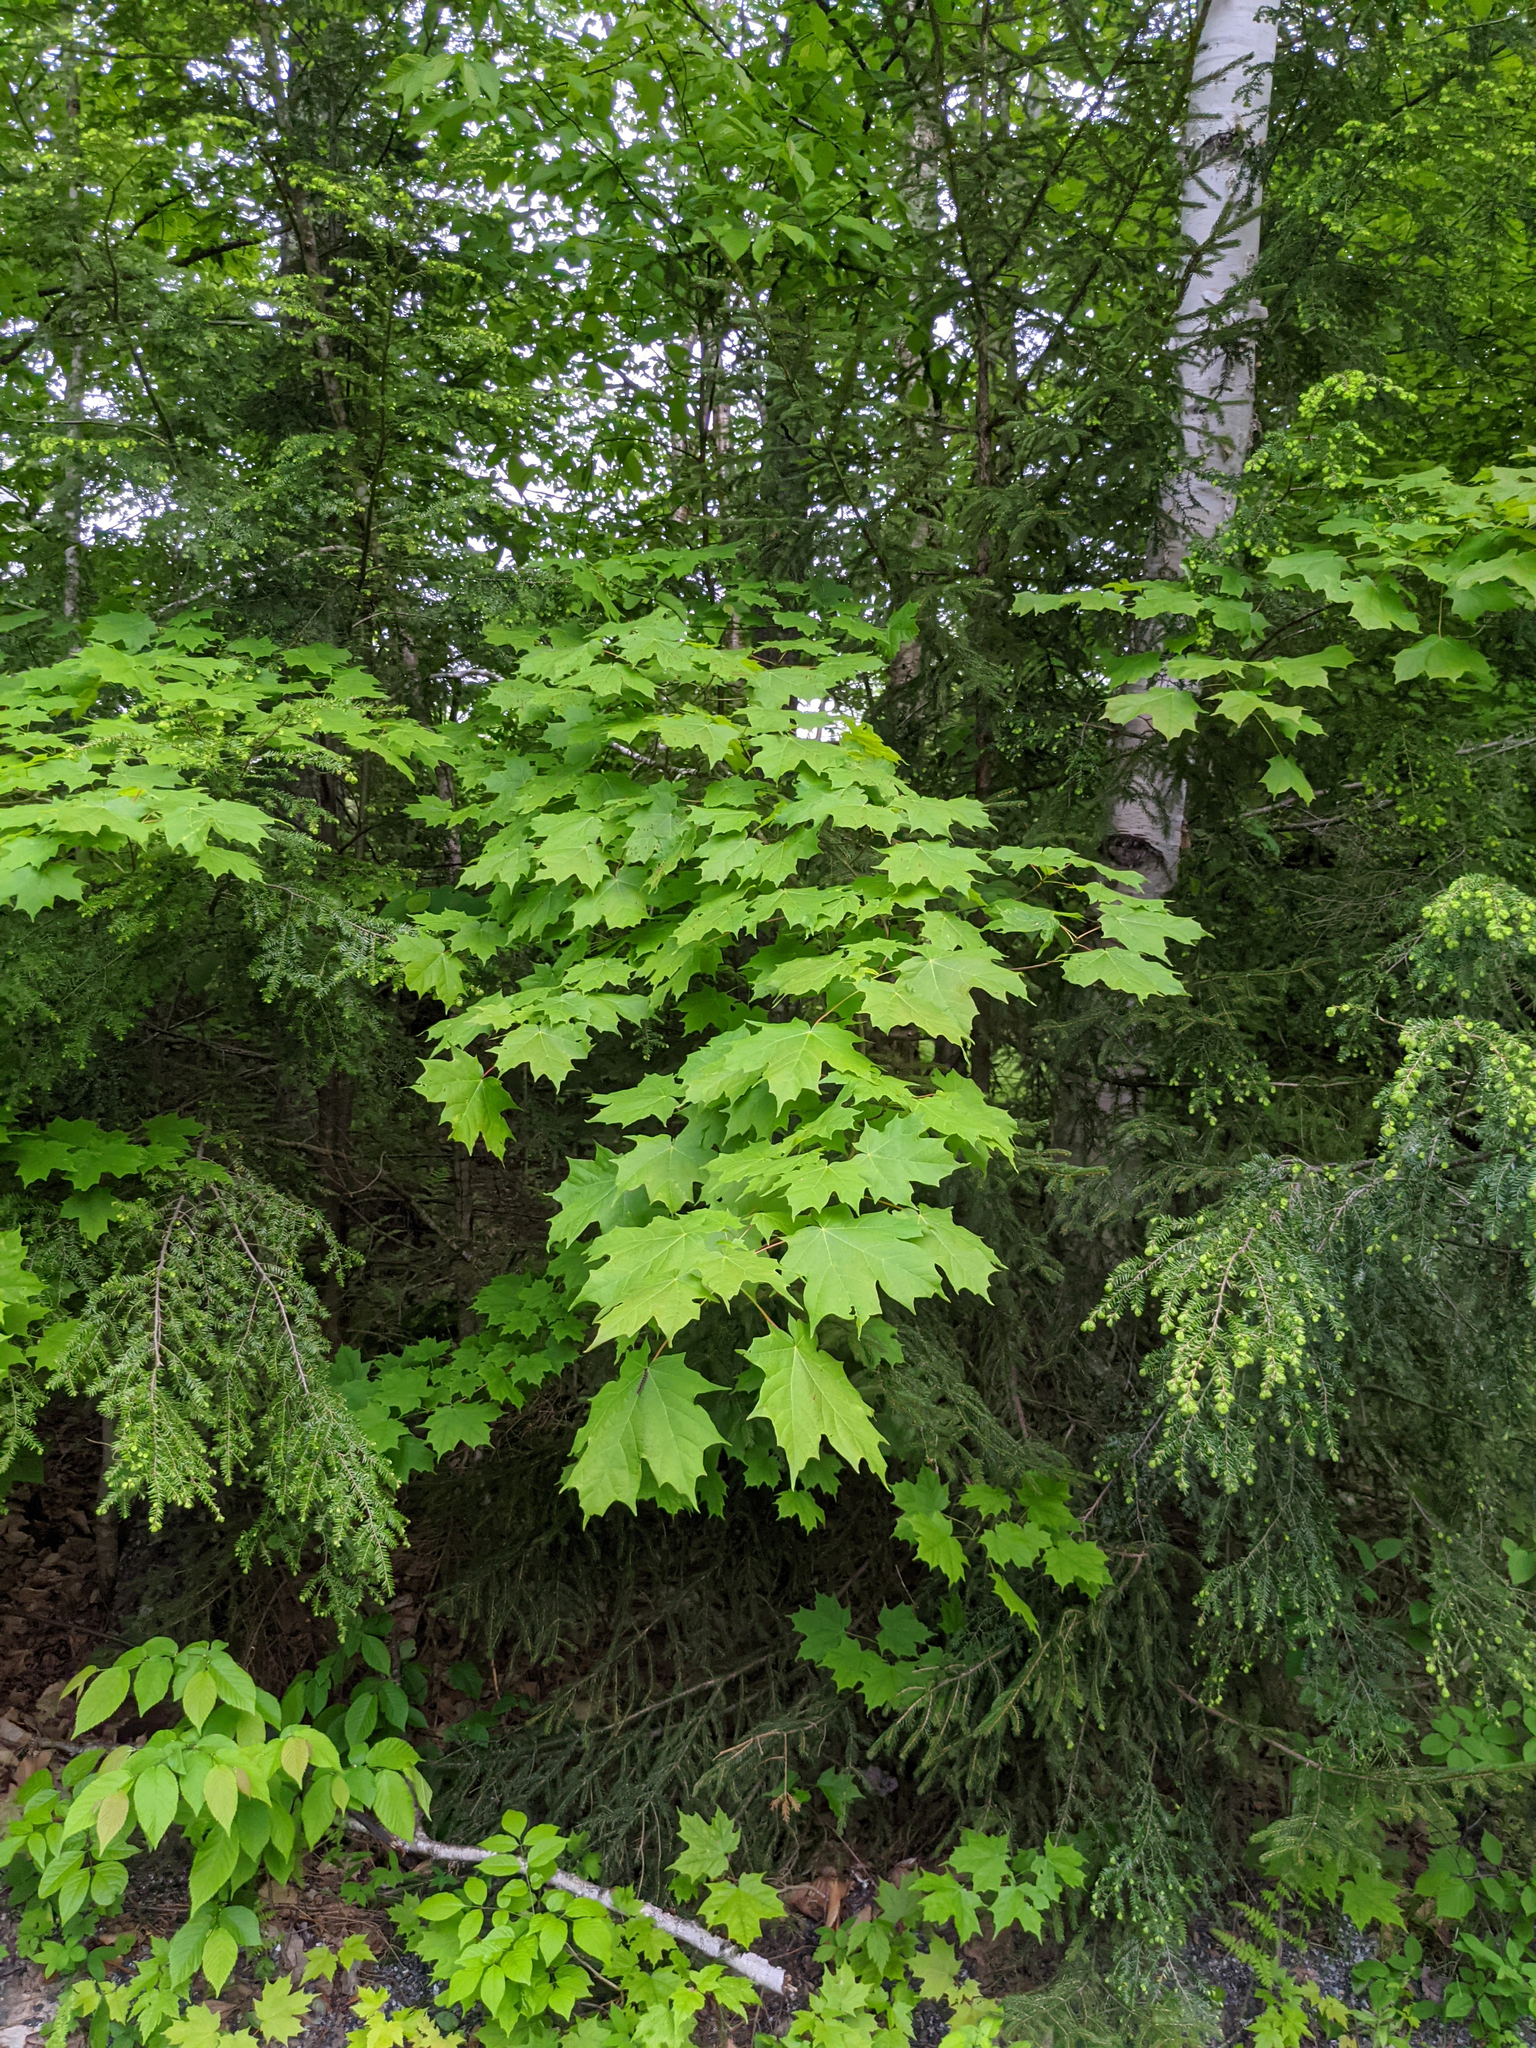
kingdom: Plantae
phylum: Tracheophyta
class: Magnoliopsida
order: Sapindales
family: Sapindaceae
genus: Acer
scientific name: Acer saccharum
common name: Sugar maple
